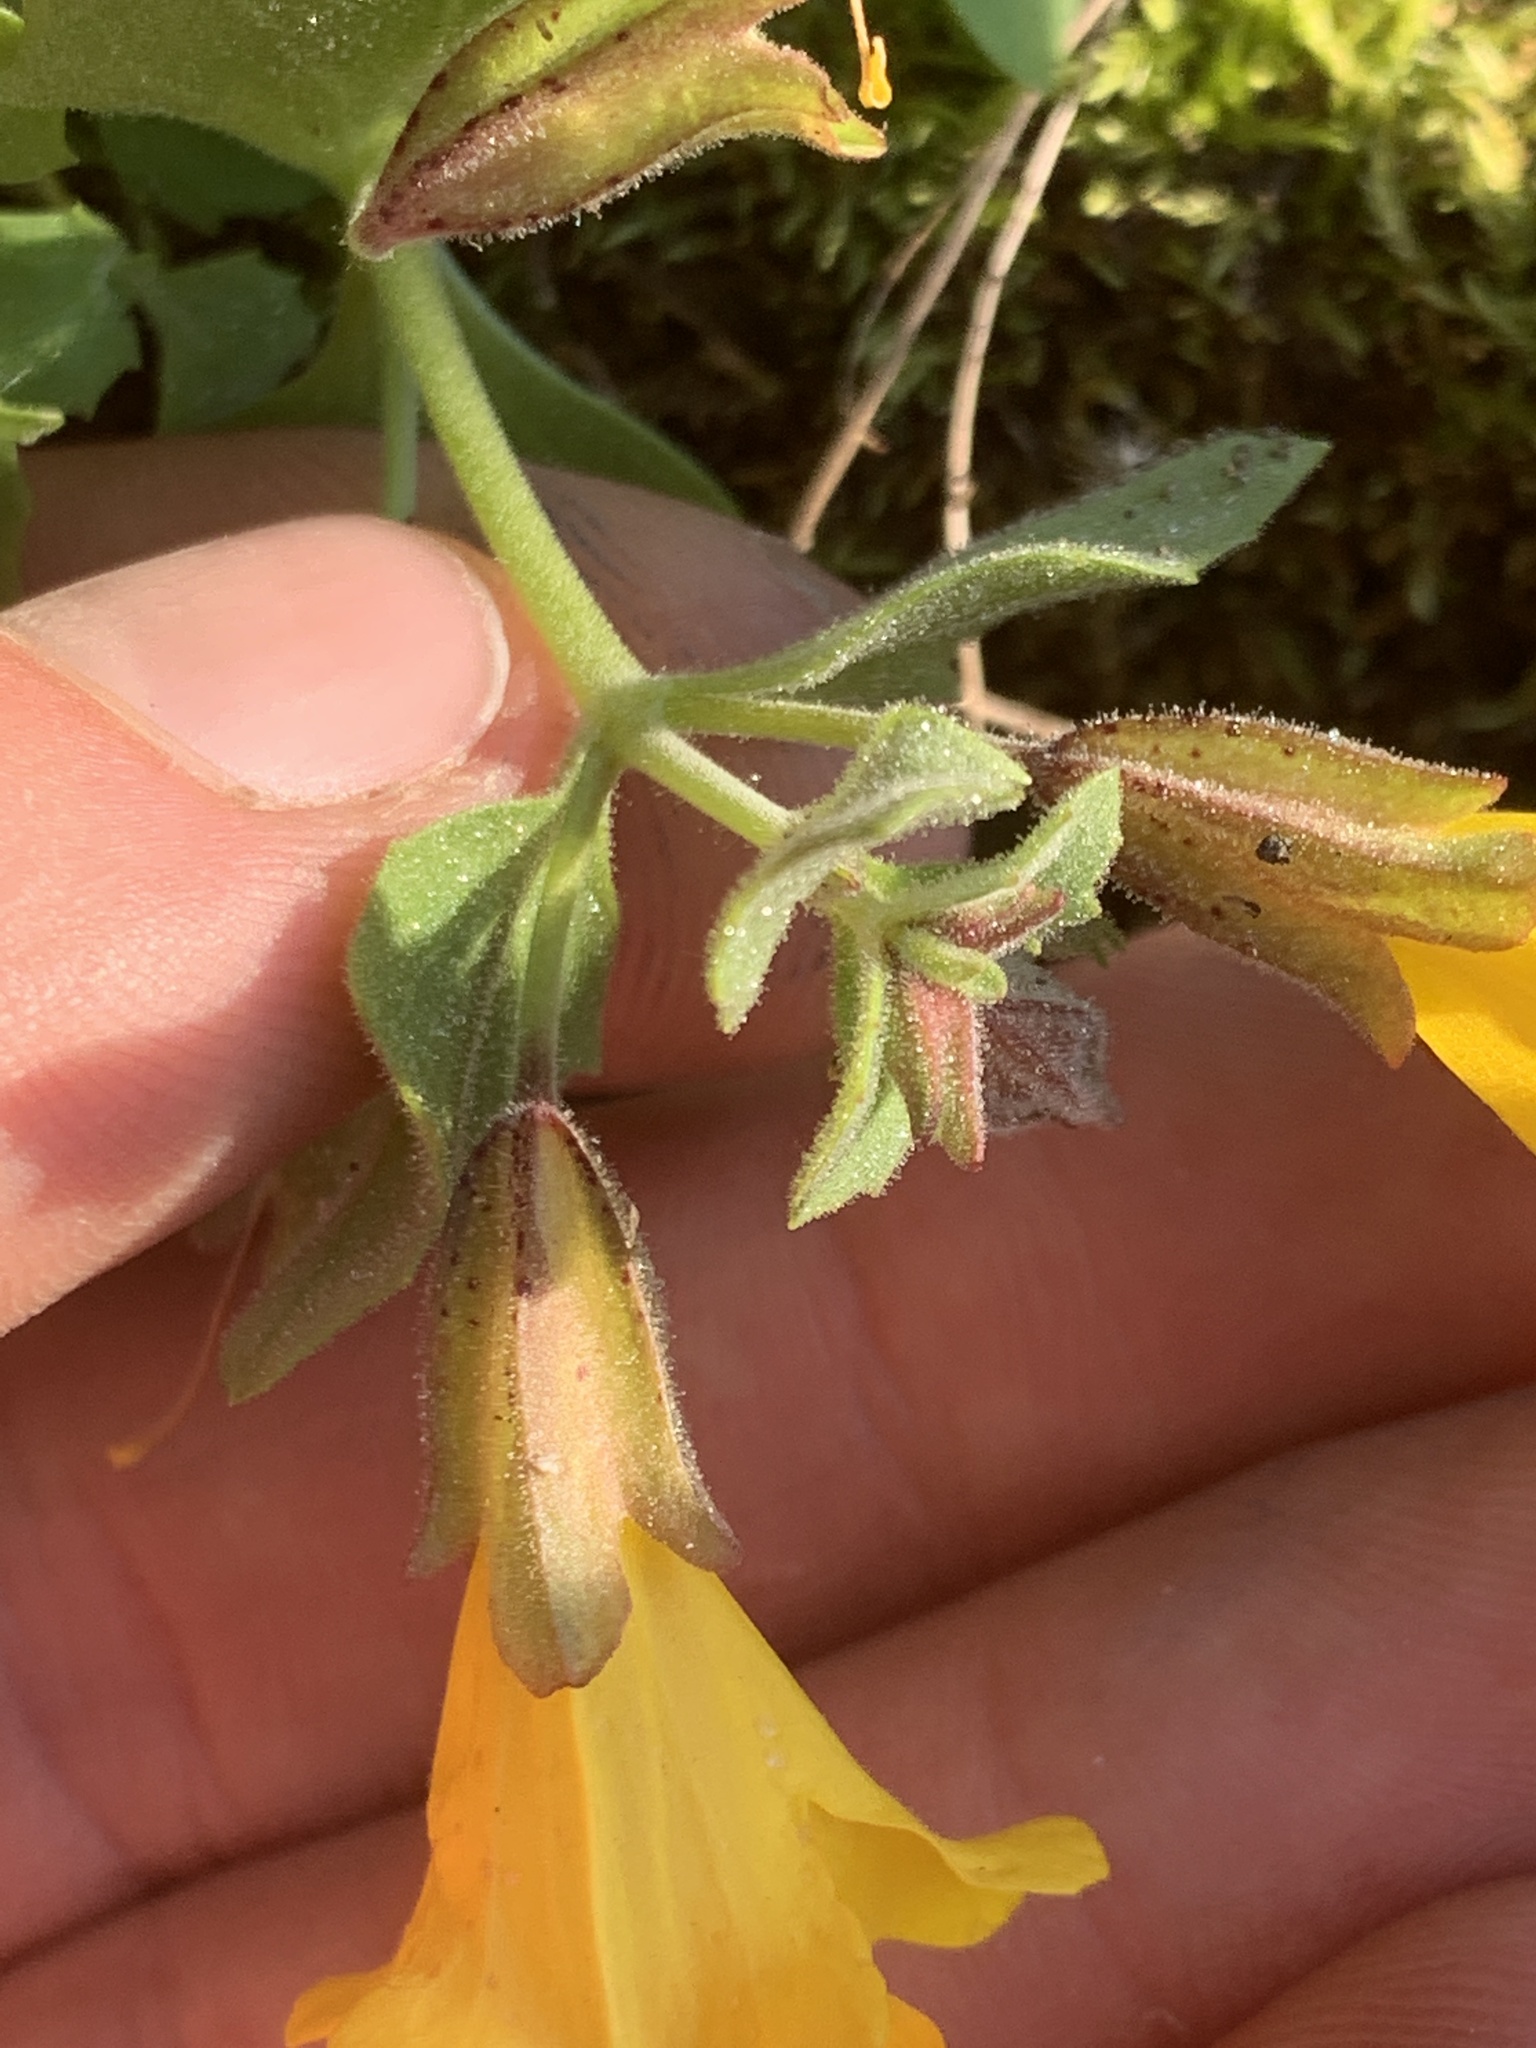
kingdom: Plantae
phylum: Tracheophyta
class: Magnoliopsida
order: Lamiales
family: Phrymaceae
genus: Erythranthe
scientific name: Erythranthe tilingii
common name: Subalpine monkey-flower
